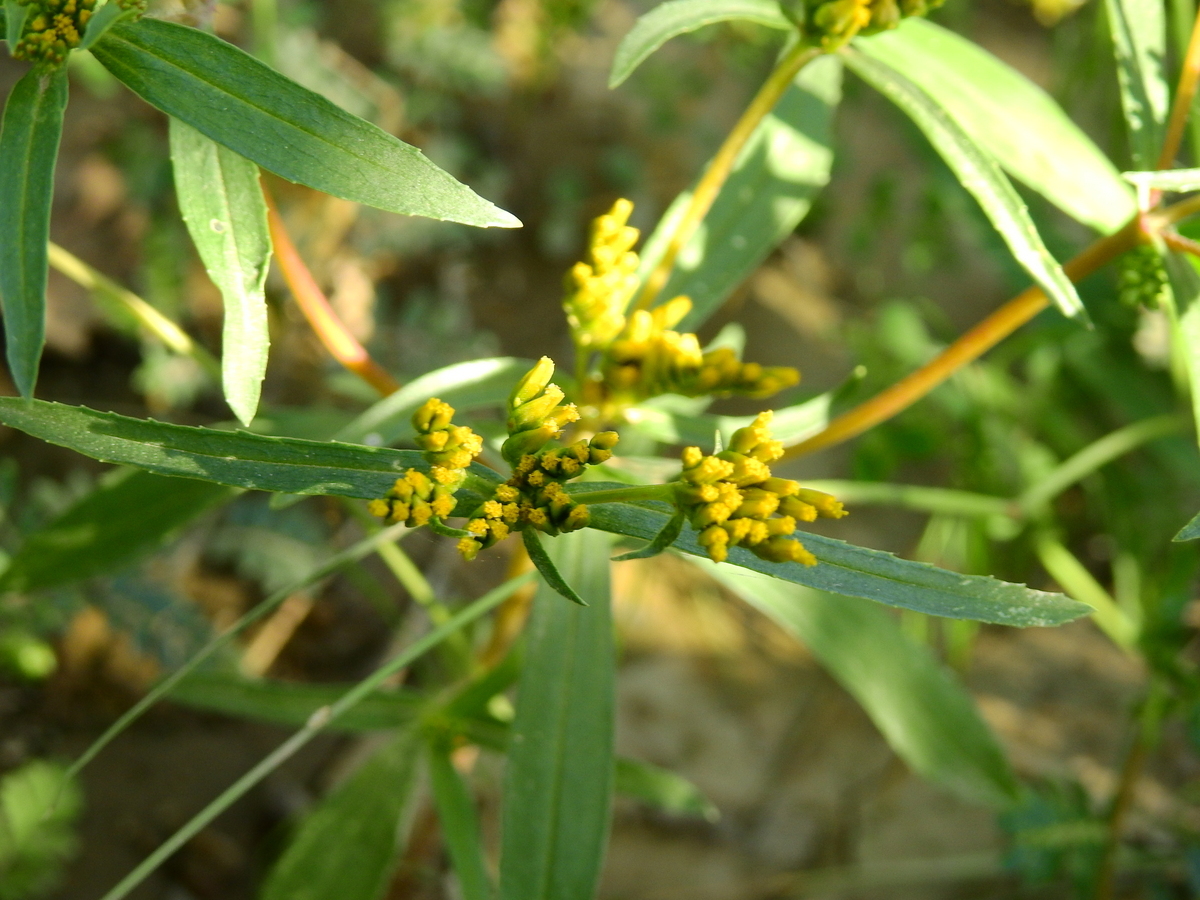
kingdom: Plantae
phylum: Tracheophyta
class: Magnoliopsida
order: Asterales
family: Asteraceae
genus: Flaveria
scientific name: Flaveria bidentis
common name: Coastal plain yellowtops
